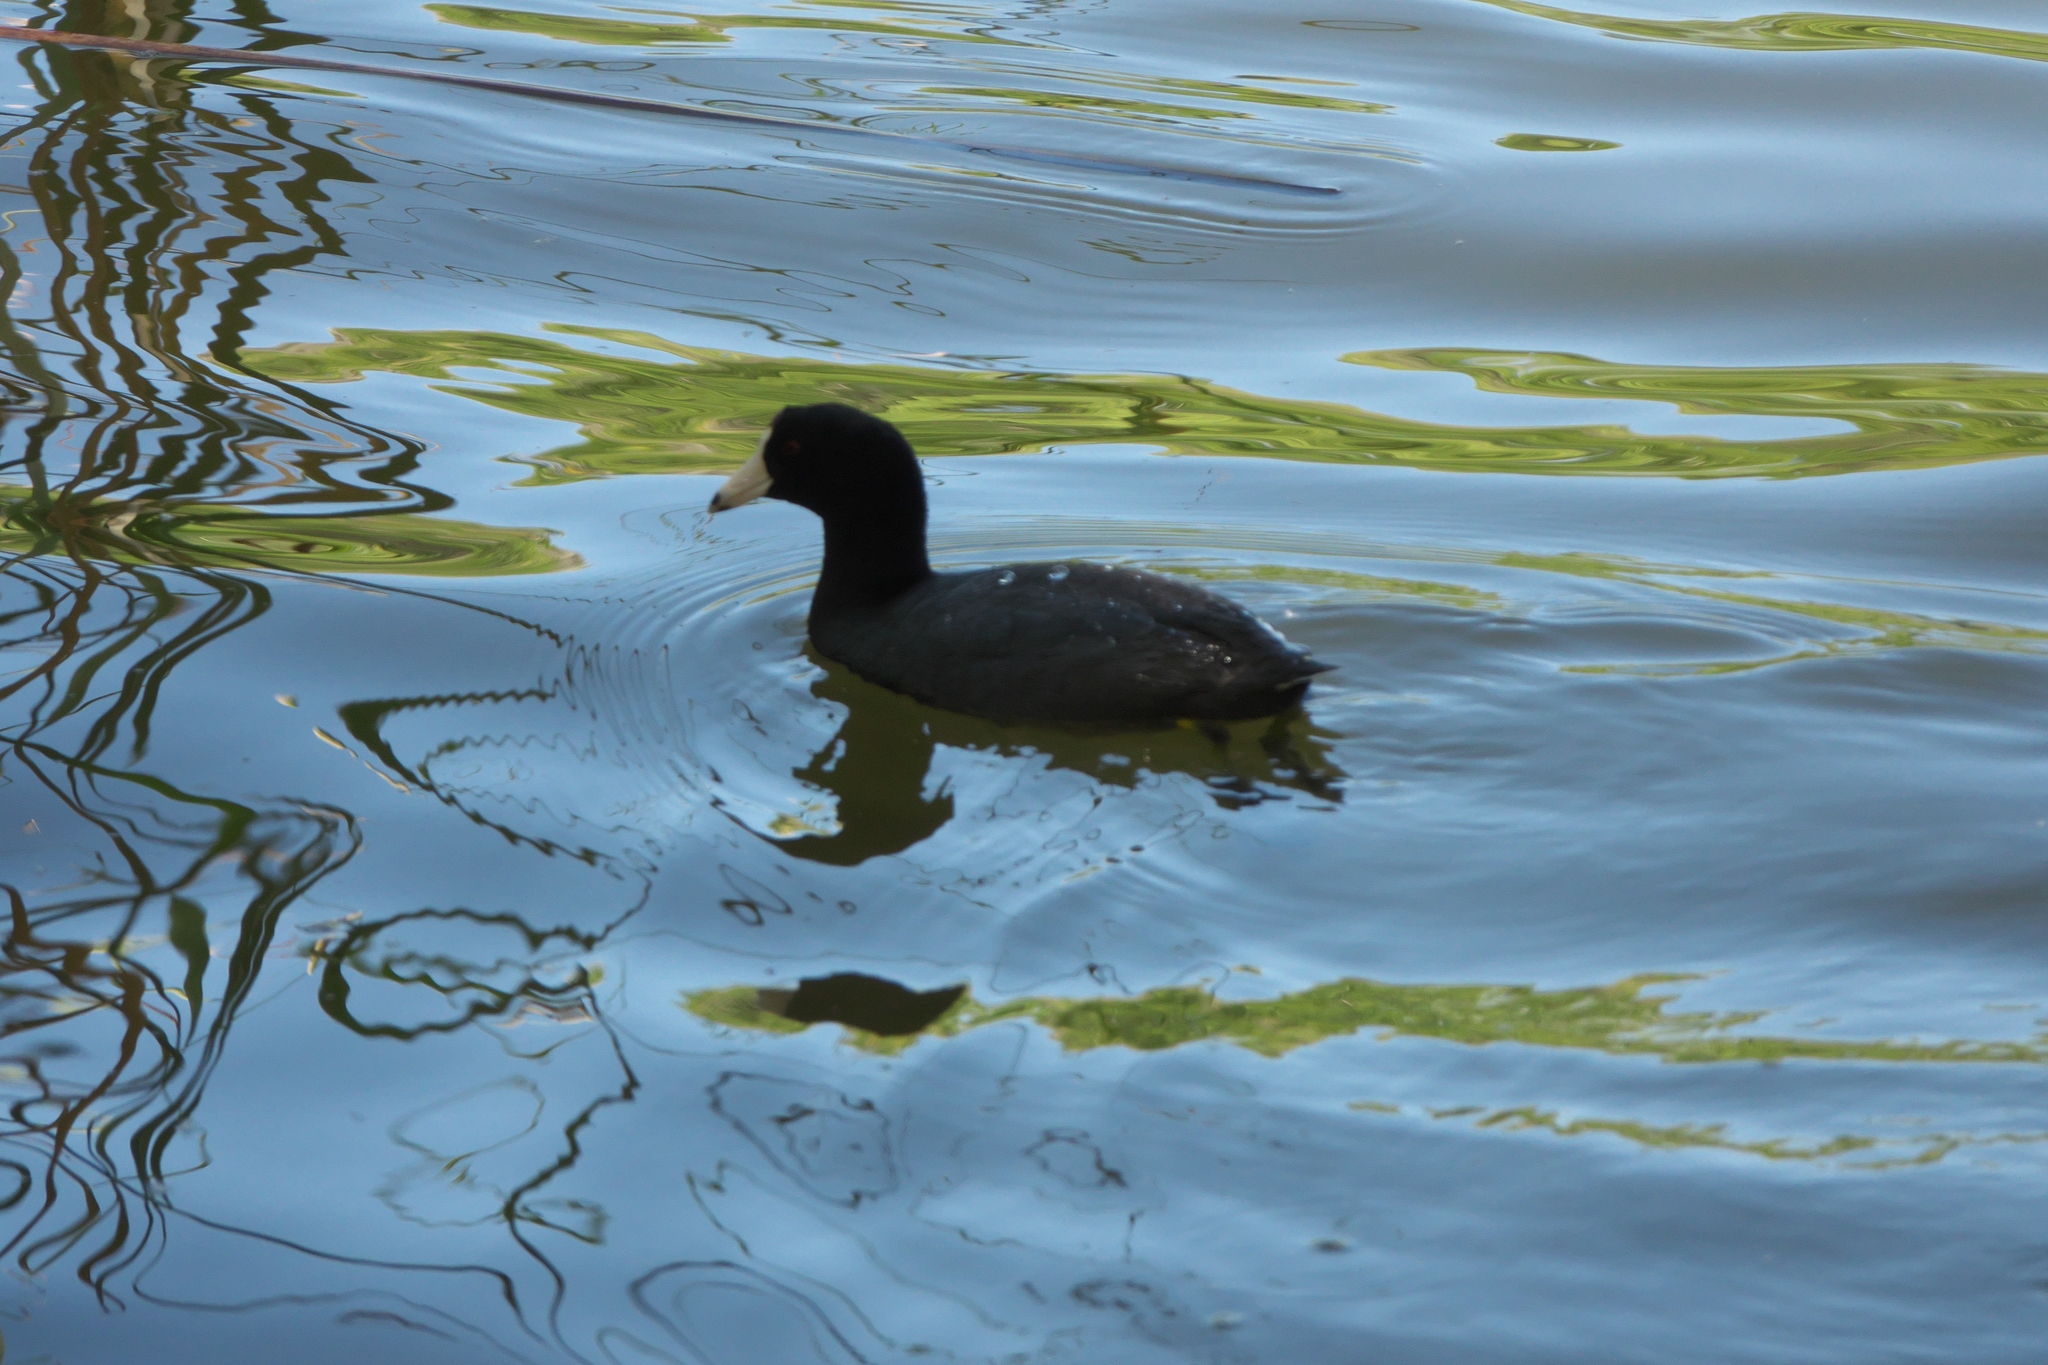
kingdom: Animalia
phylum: Chordata
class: Aves
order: Gruiformes
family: Rallidae
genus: Fulica
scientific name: Fulica americana
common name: American coot
